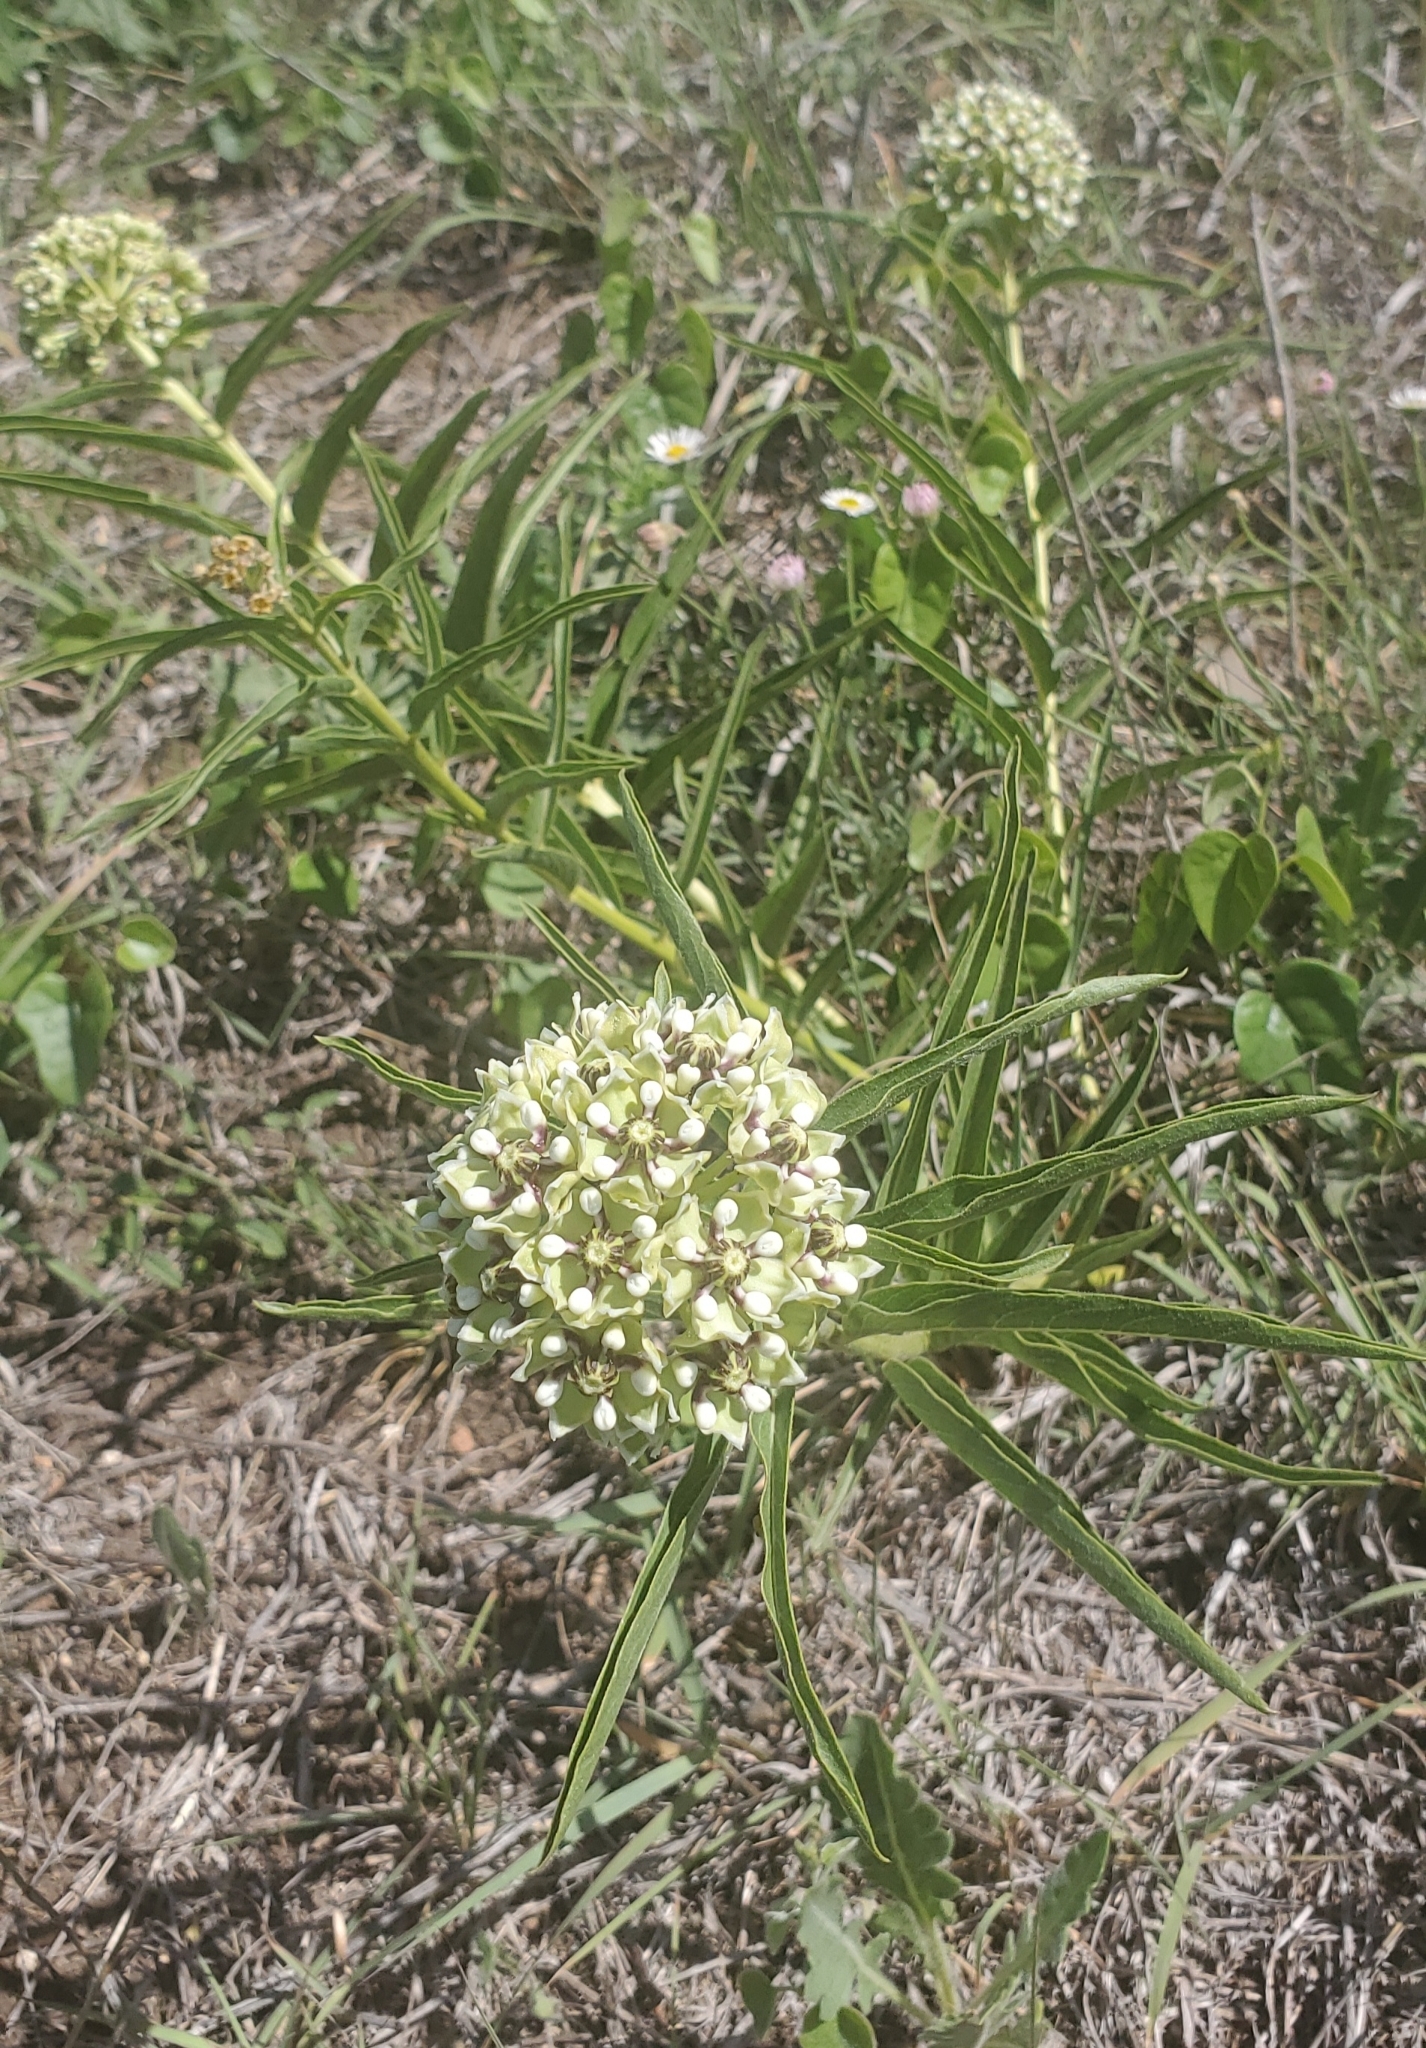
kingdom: Plantae
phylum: Tracheophyta
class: Magnoliopsida
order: Gentianales
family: Apocynaceae
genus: Asclepias
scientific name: Asclepias asperula
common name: Antelope horns
